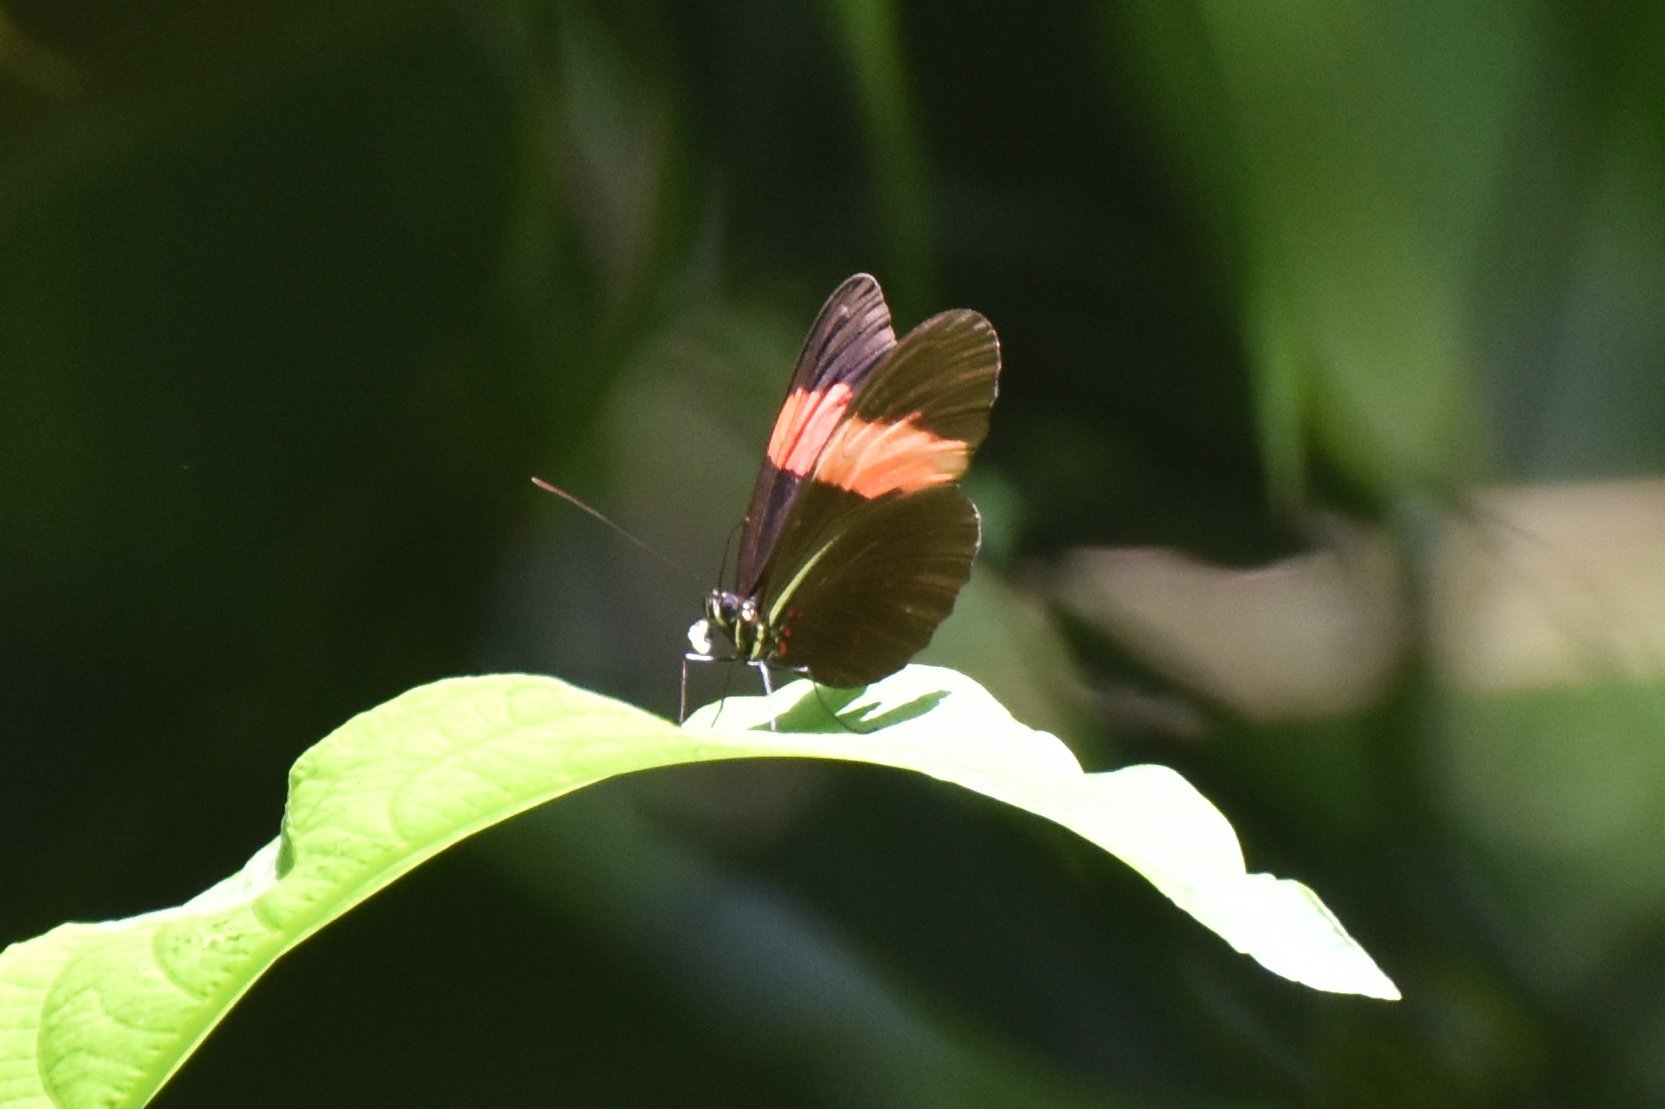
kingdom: Animalia
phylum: Arthropoda
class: Insecta
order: Lepidoptera
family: Nymphalidae
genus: Heliconius
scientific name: Heliconius erato
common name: Common patch longwing
